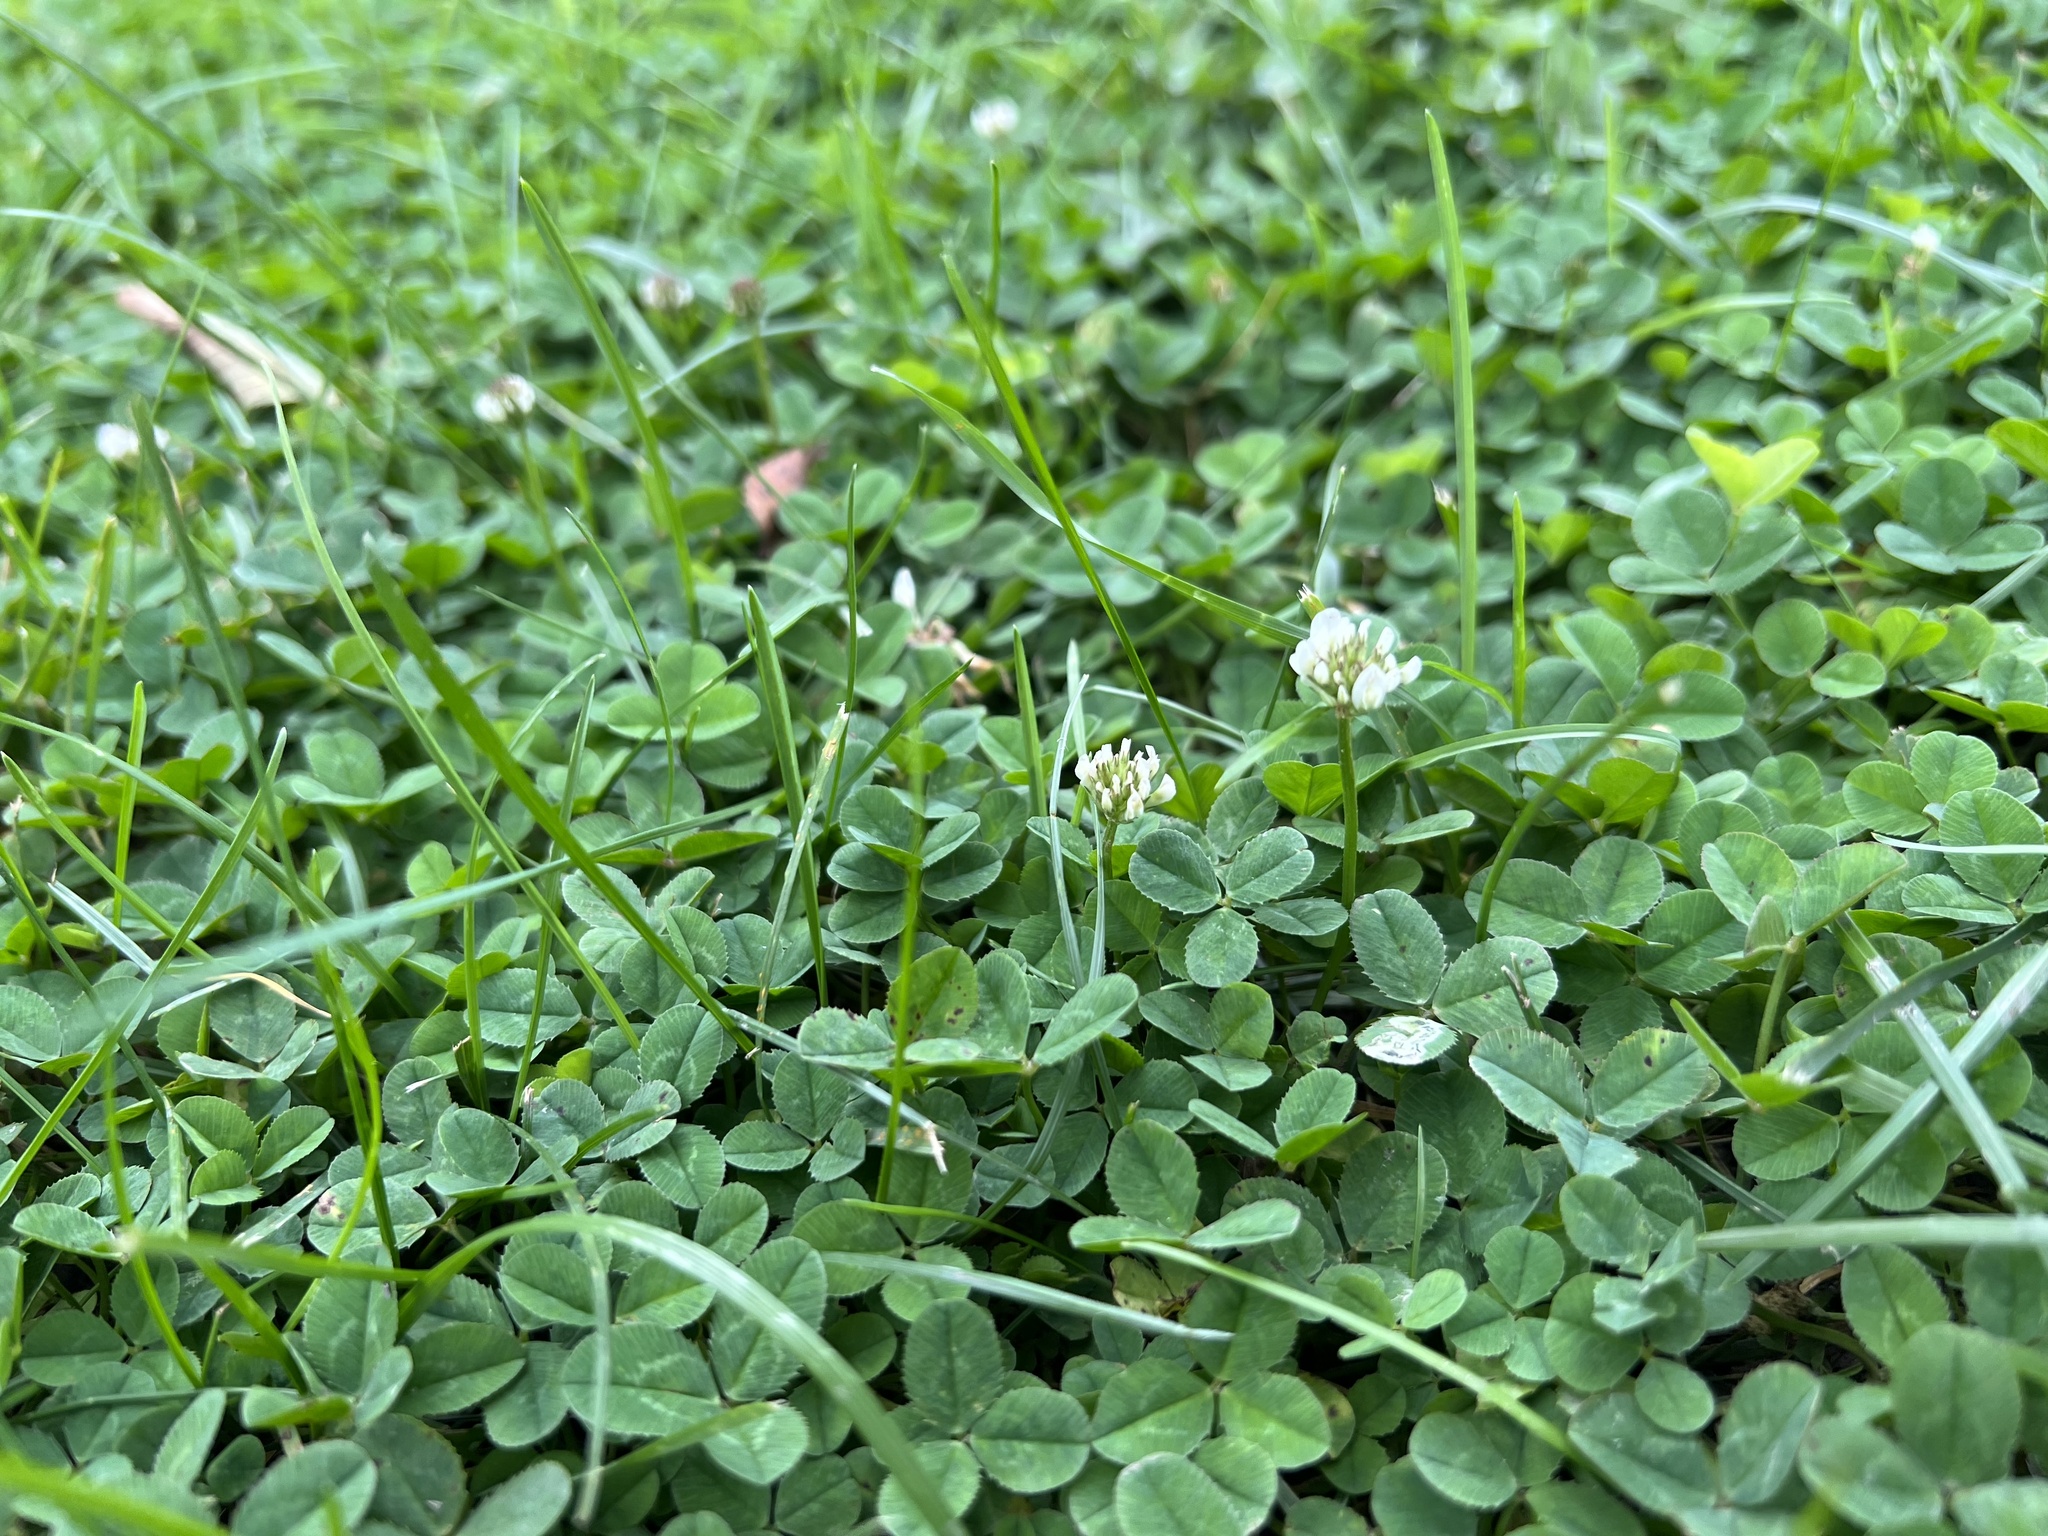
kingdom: Plantae
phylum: Tracheophyta
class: Magnoliopsida
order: Fabales
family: Fabaceae
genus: Trifolium
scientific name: Trifolium repens
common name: White clover
